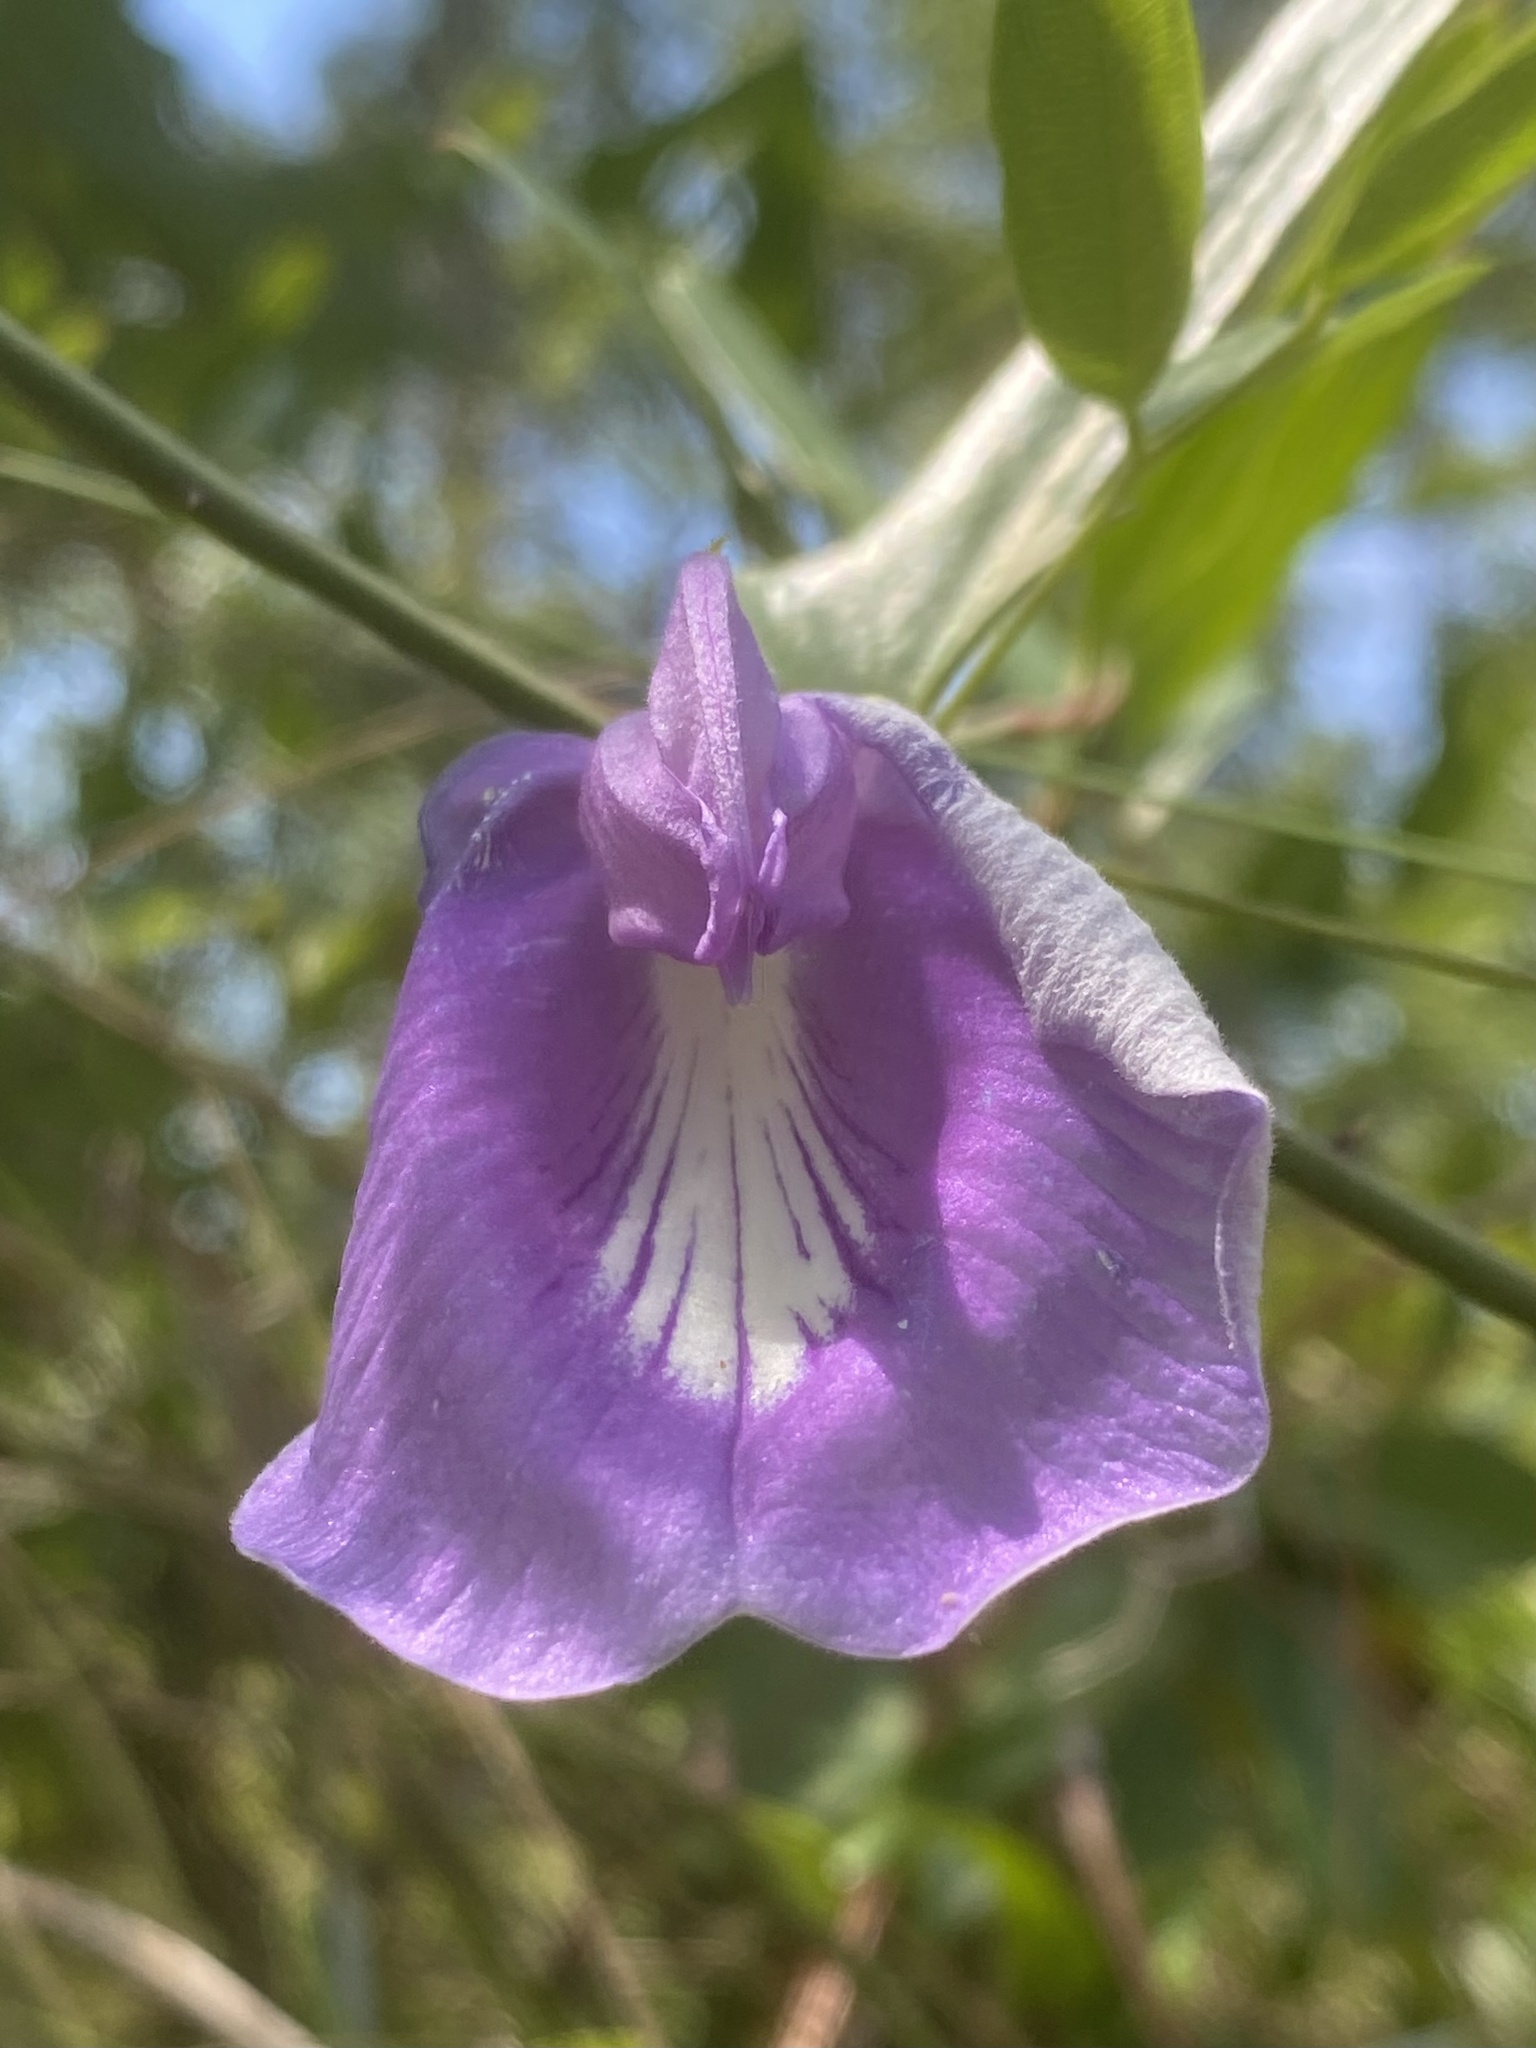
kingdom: Plantae
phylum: Tracheophyta
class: Magnoliopsida
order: Fabales
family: Fabaceae
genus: Centrosema
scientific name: Centrosema virginianum
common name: Butterfly-pea
